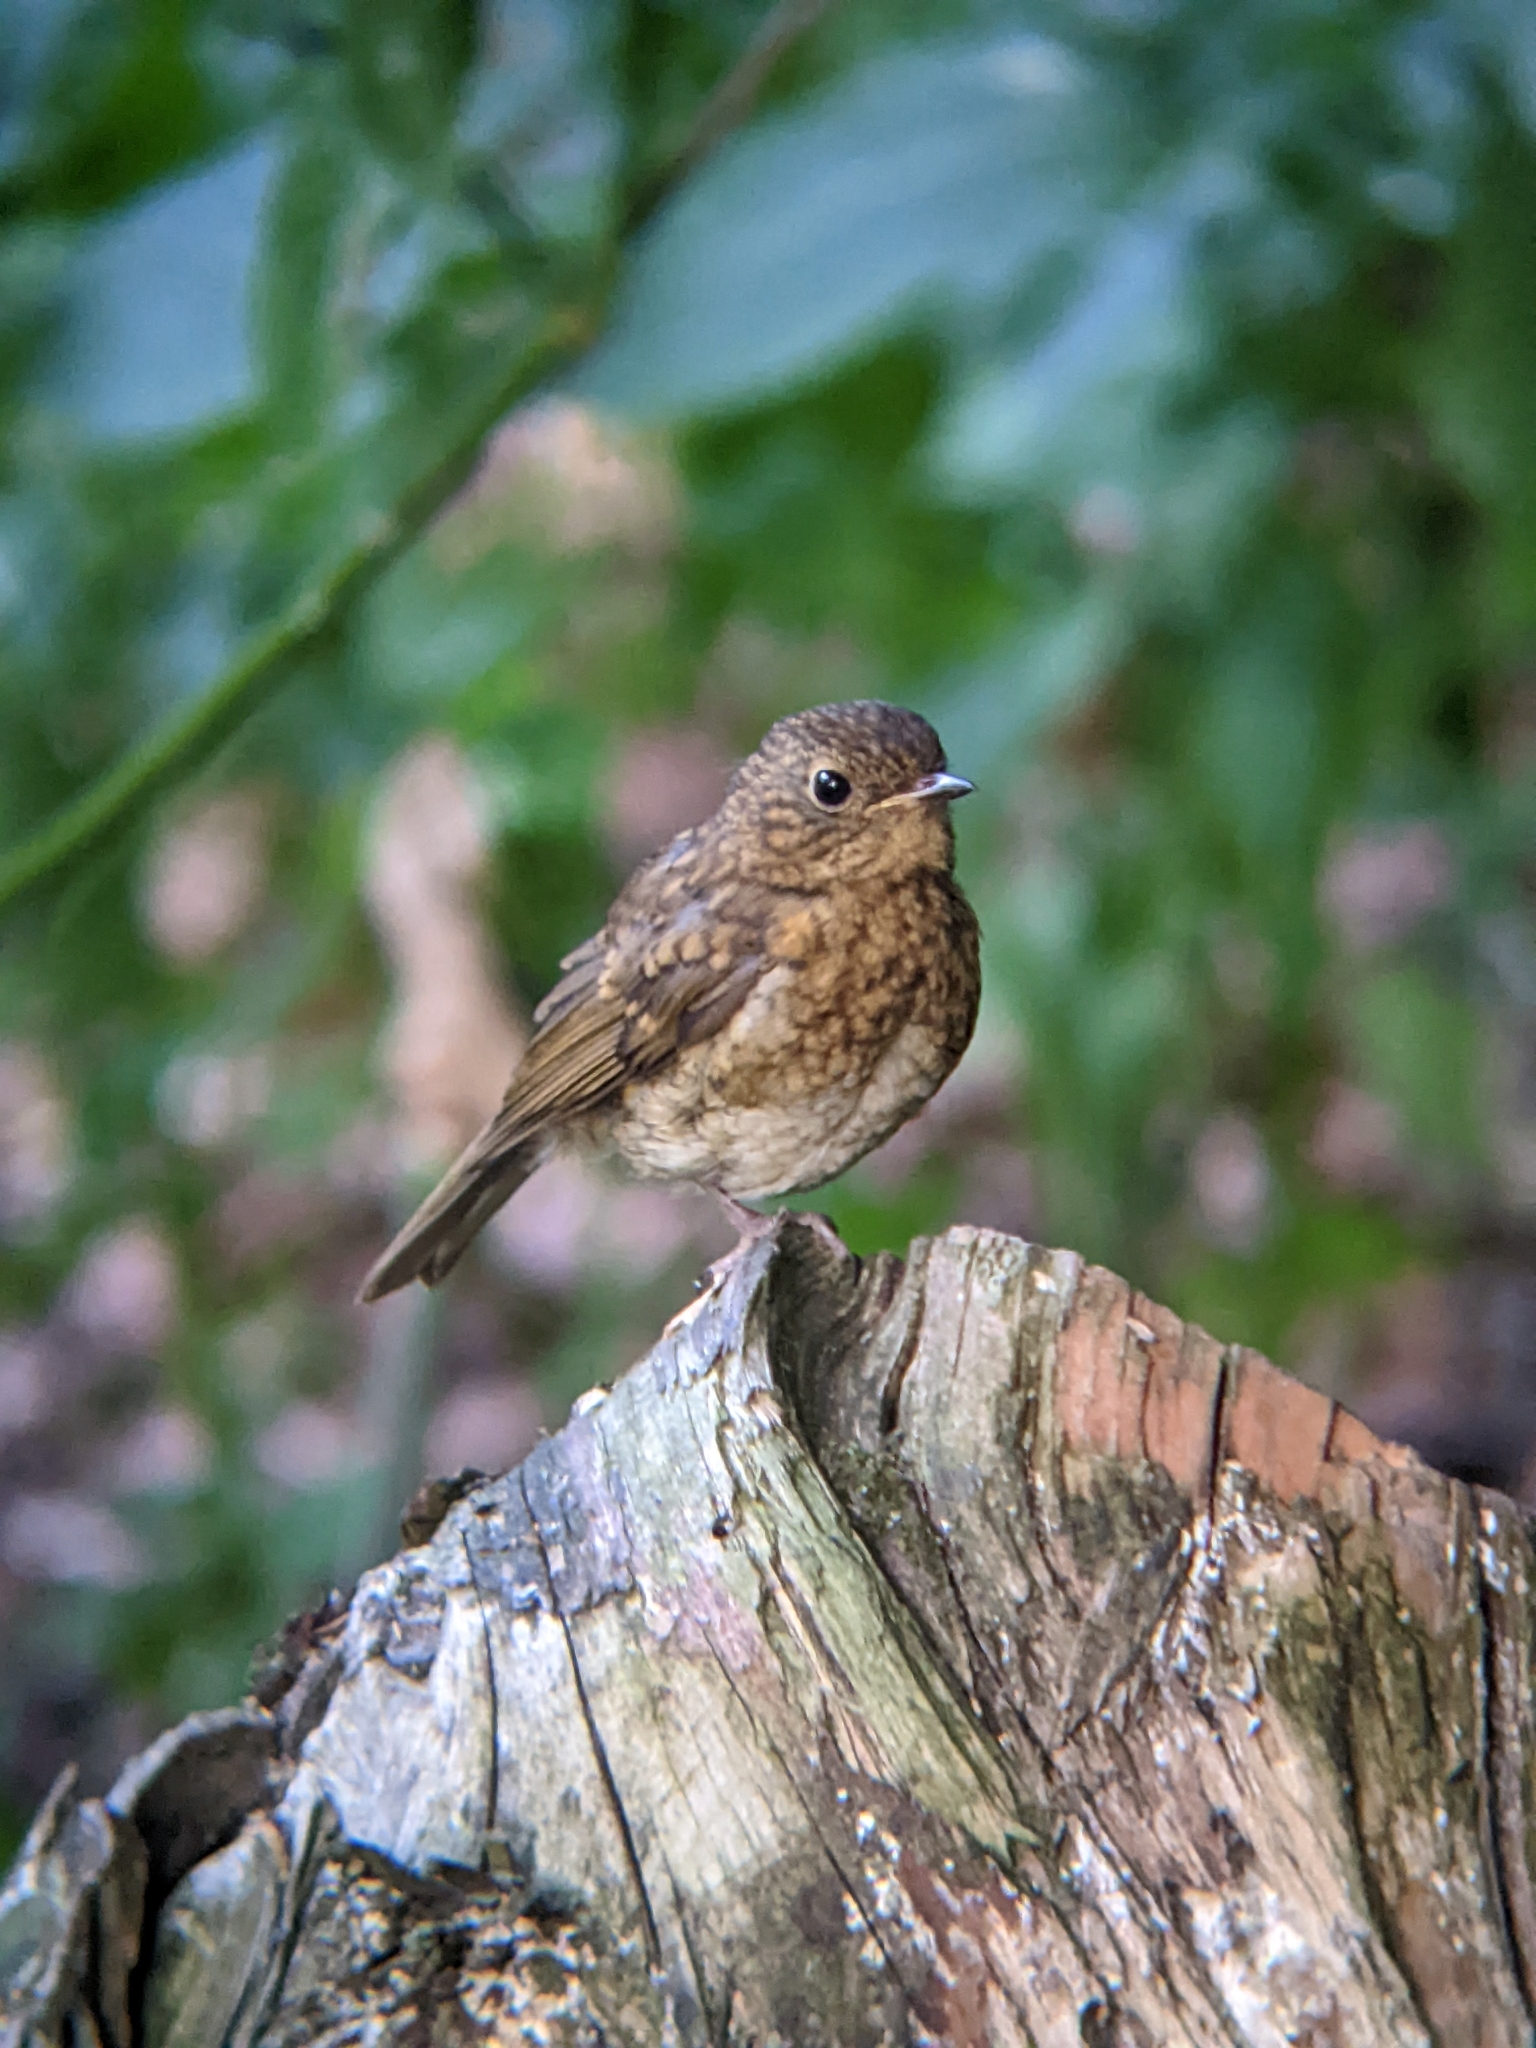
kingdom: Animalia
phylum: Chordata
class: Aves
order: Passeriformes
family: Muscicapidae
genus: Erithacus
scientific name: Erithacus rubecula
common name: European robin
